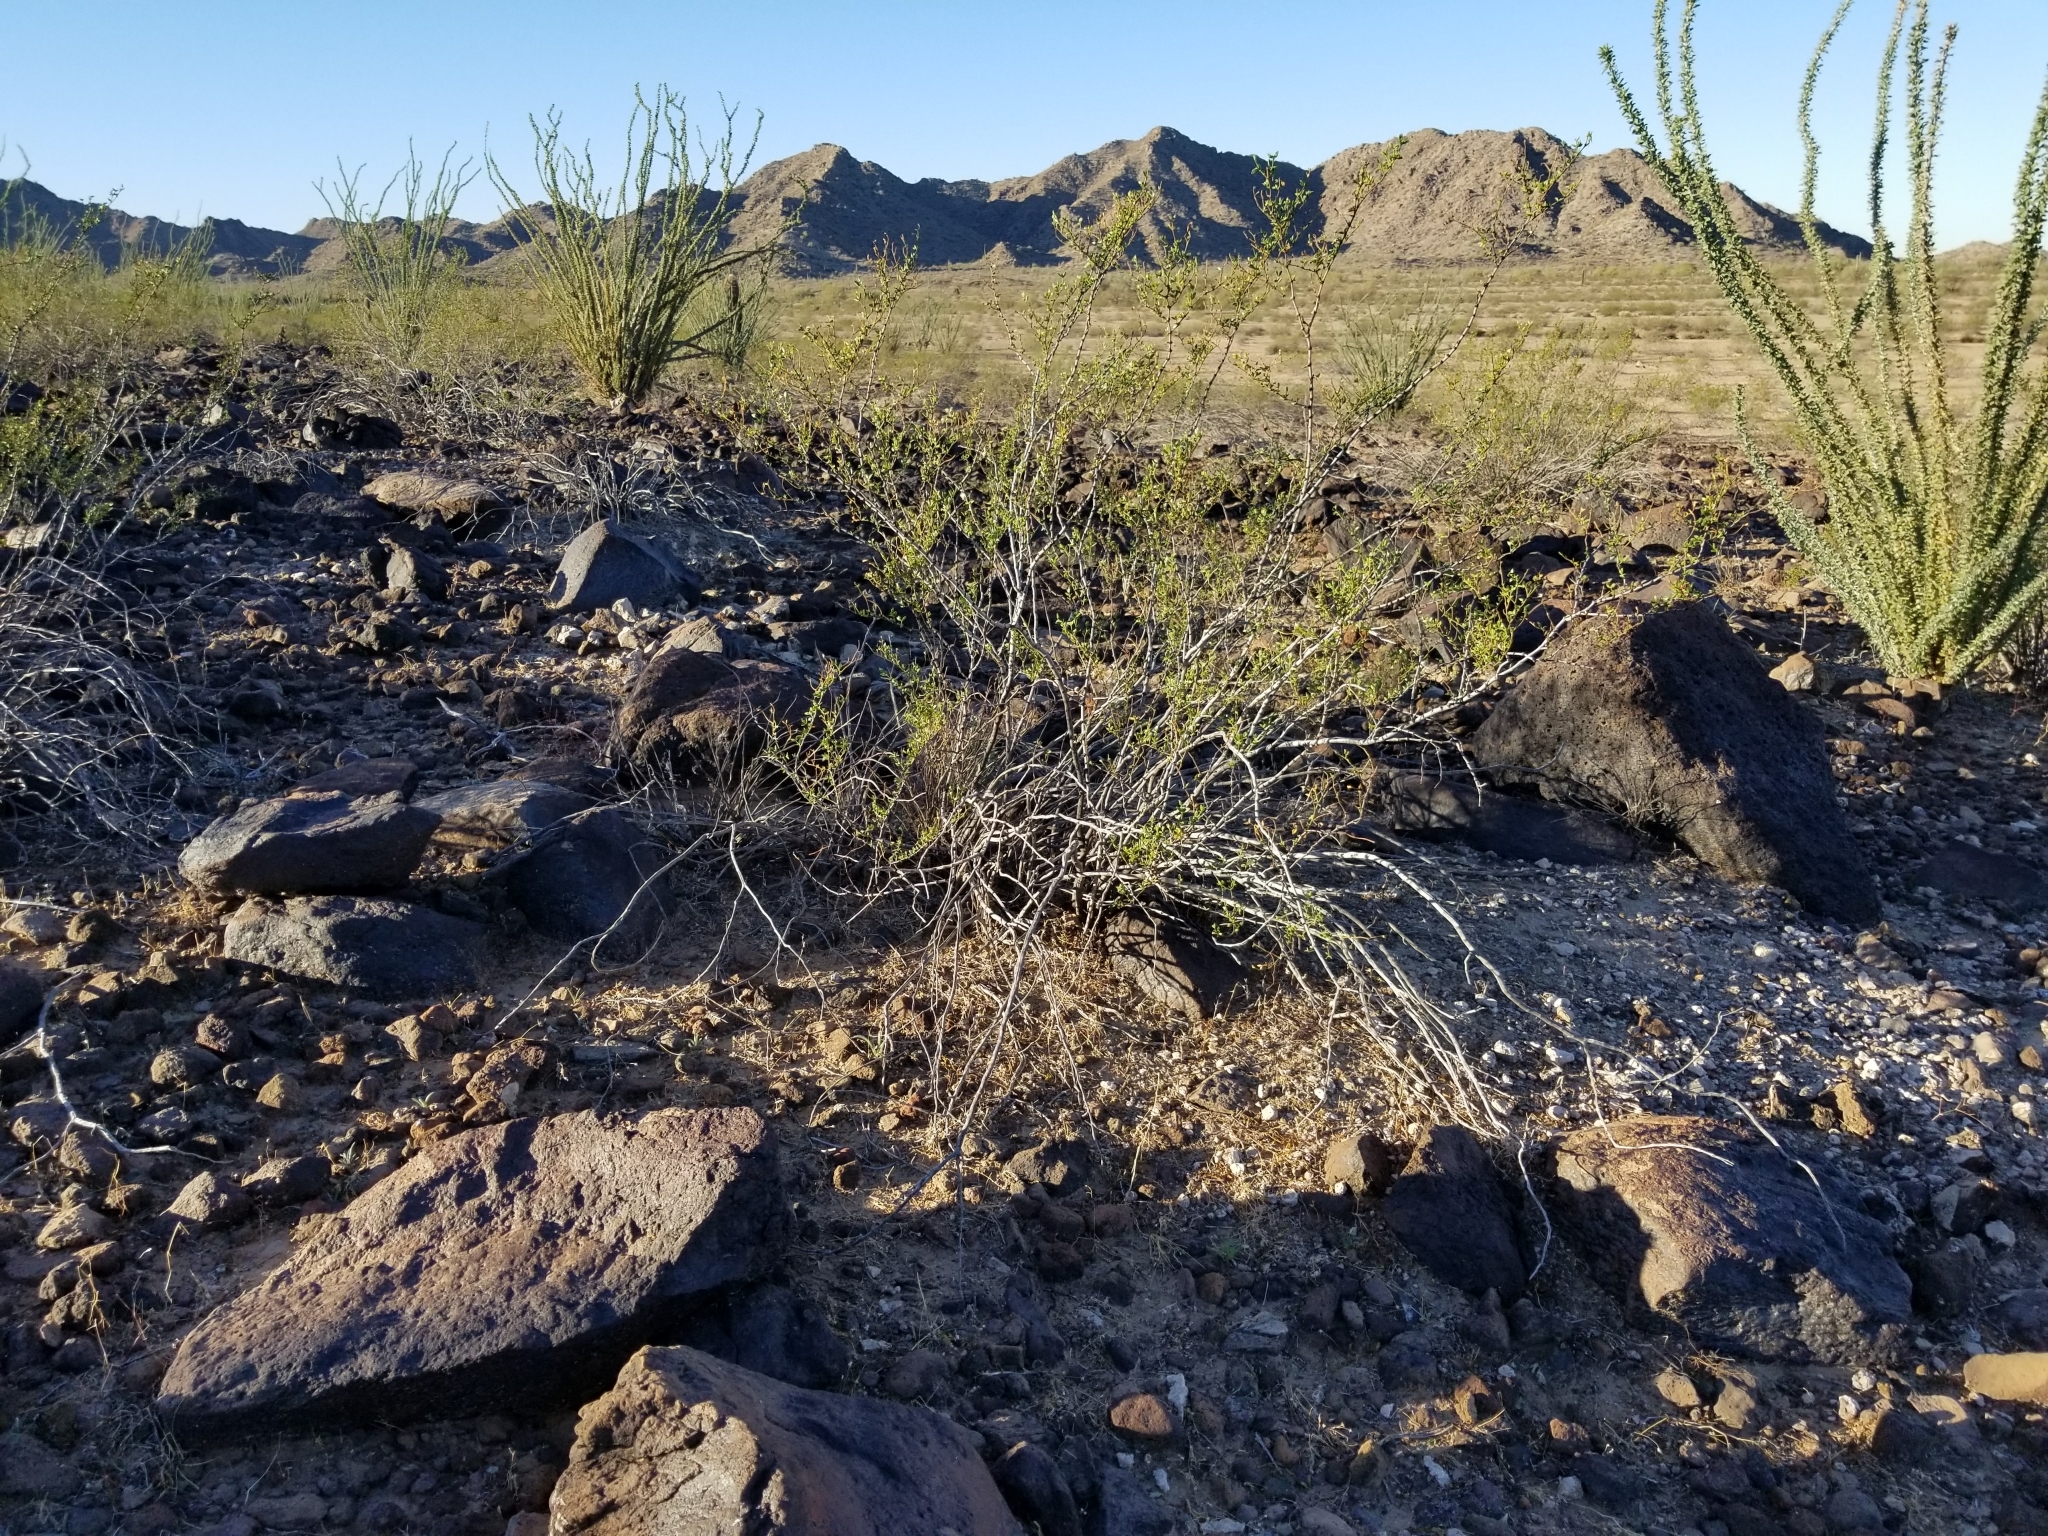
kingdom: Plantae
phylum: Tracheophyta
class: Magnoliopsida
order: Zygophyllales
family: Zygophyllaceae
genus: Larrea
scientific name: Larrea tridentata
